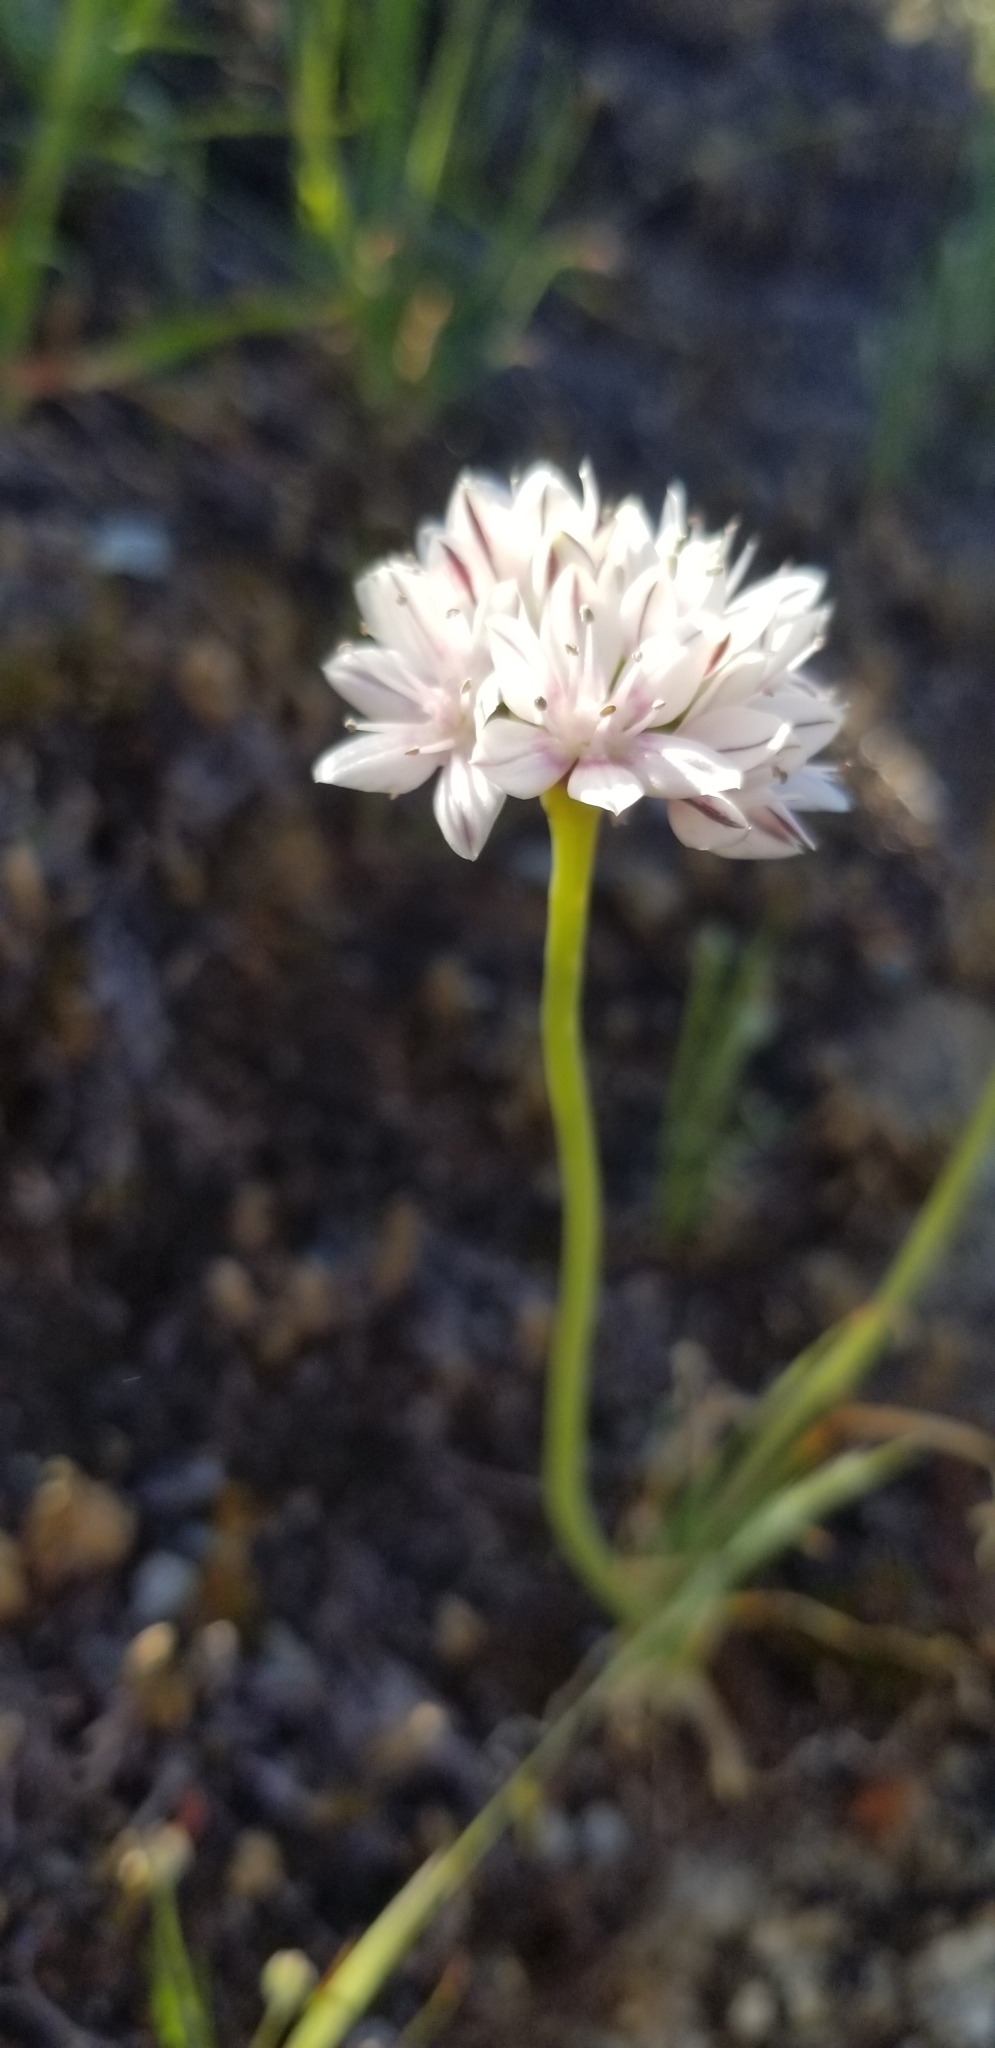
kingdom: Plantae
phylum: Tracheophyta
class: Liliopsida
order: Asparagales
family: Amaryllidaceae
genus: Allium
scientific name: Allium haematochiton
